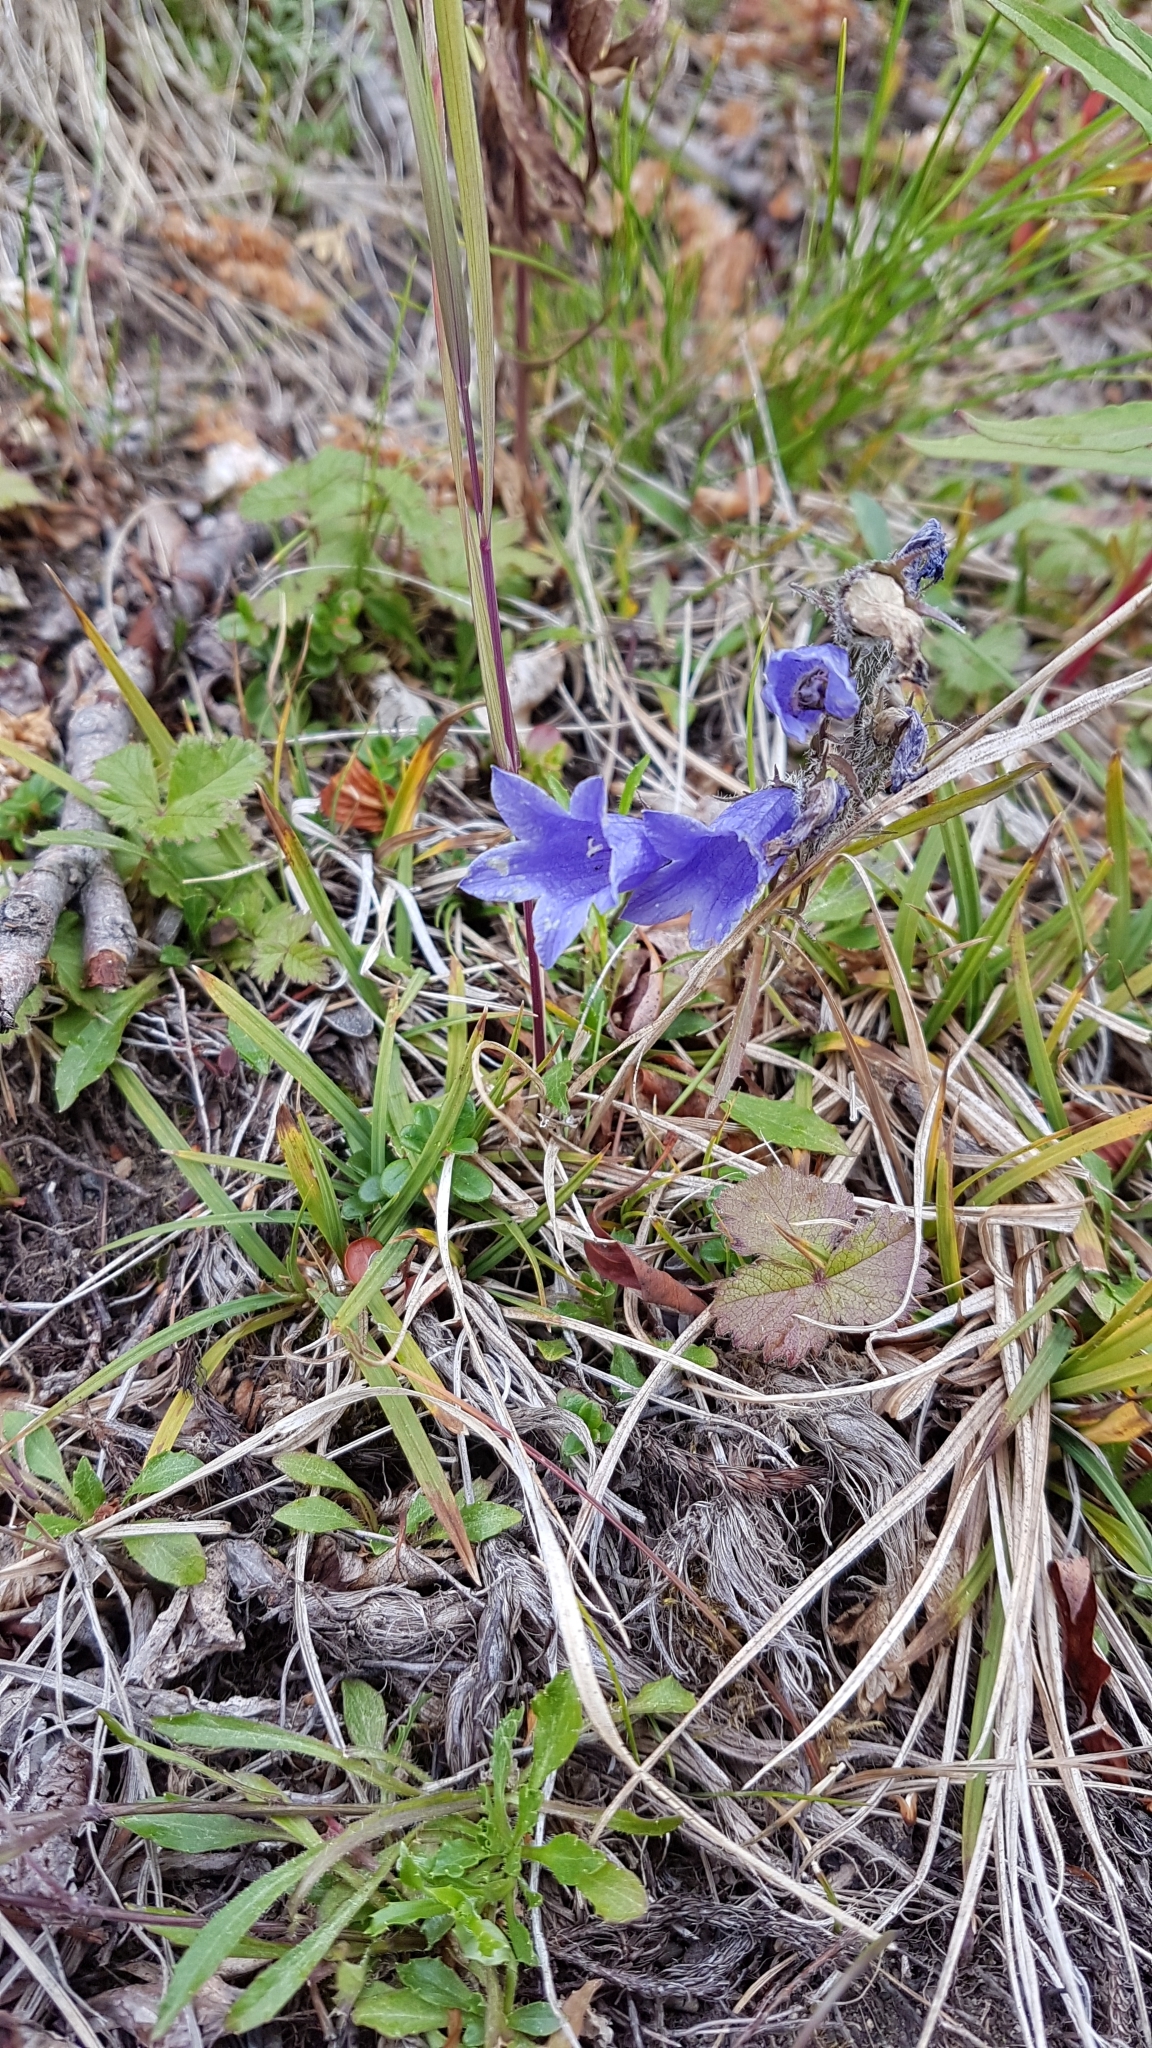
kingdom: Plantae
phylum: Tracheophyta
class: Magnoliopsida
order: Asterales
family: Campanulaceae
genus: Campanula
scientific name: Campanula lasiocarpa
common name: Mountain harebell
